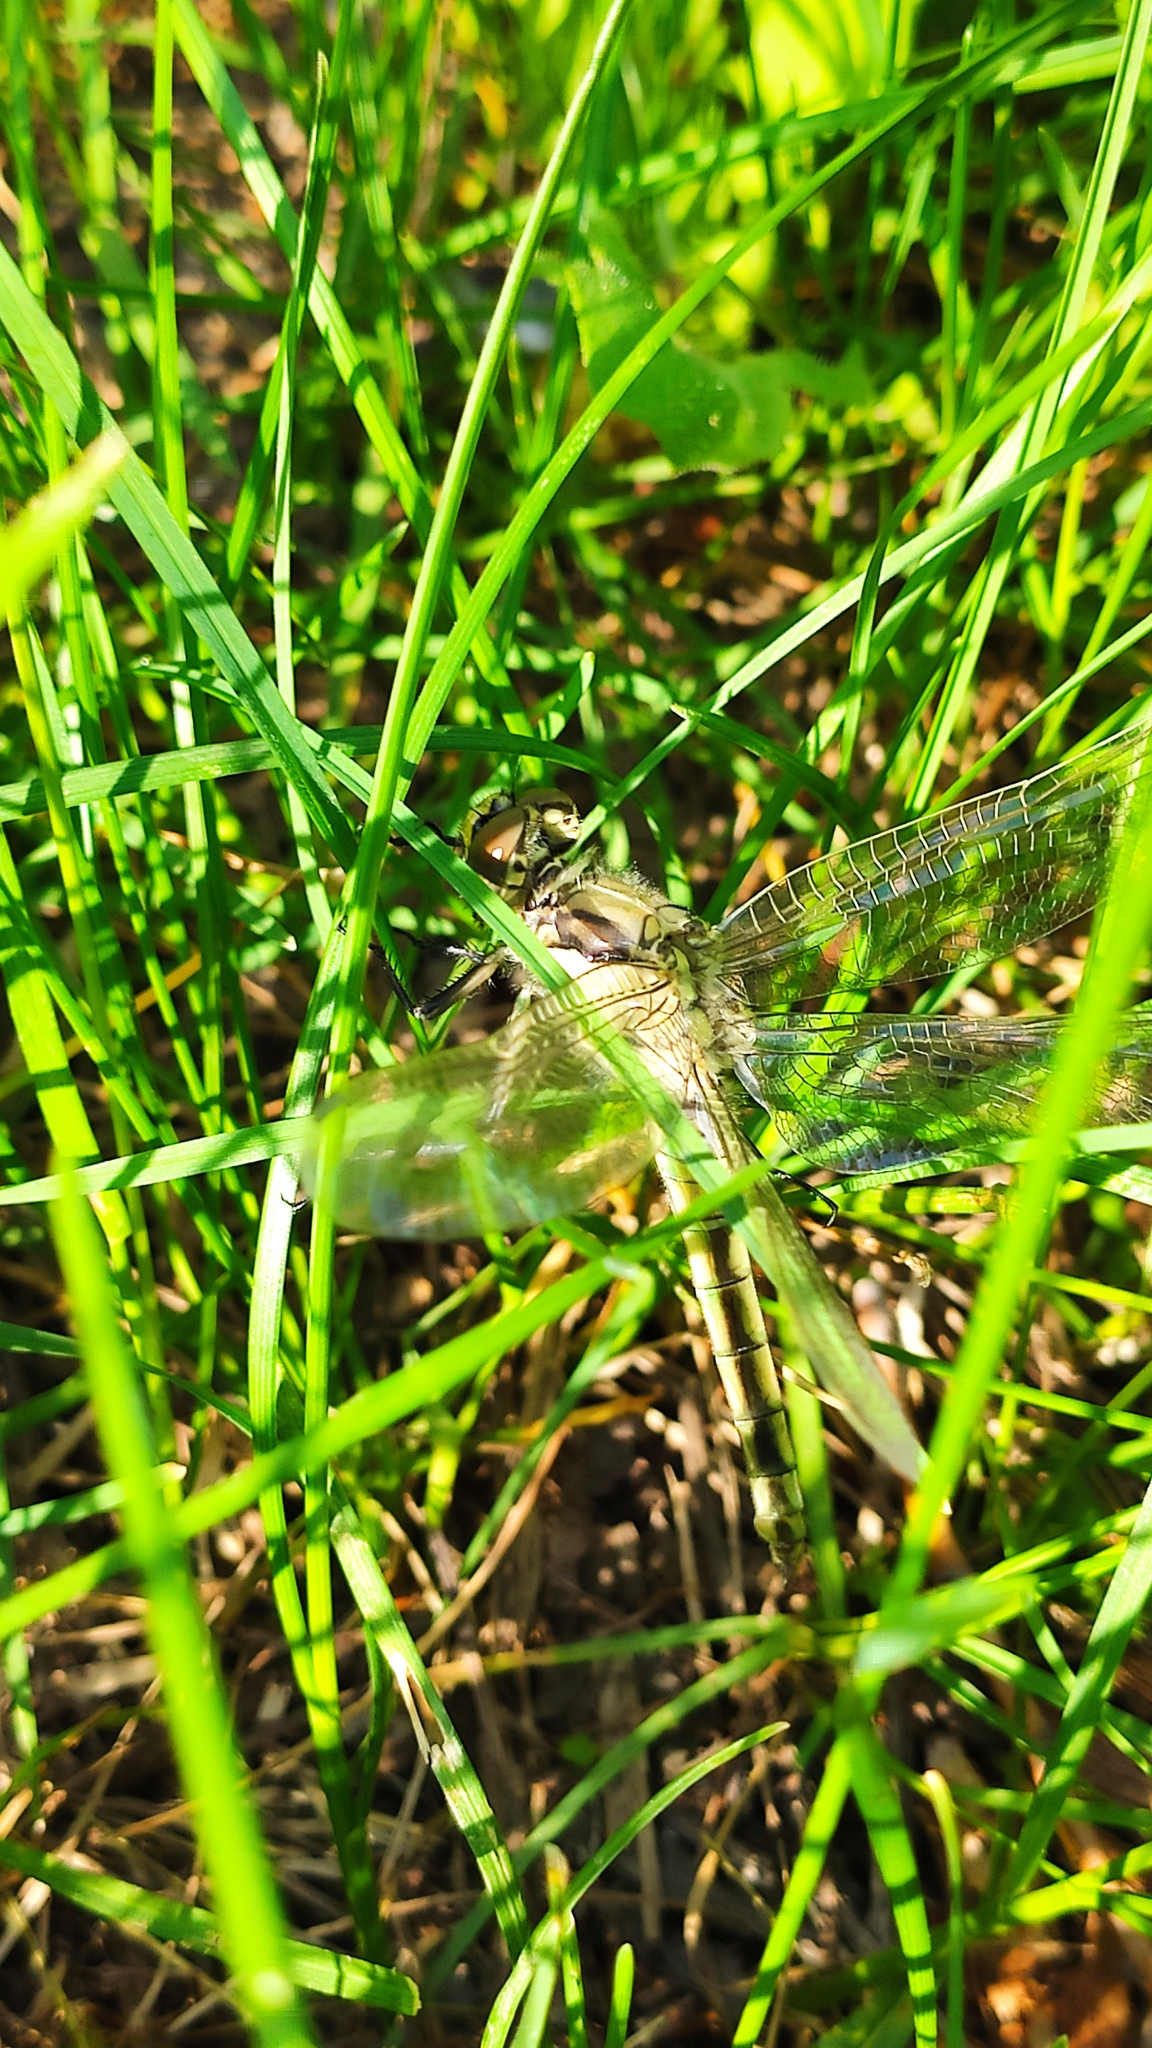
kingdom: Animalia
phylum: Arthropoda
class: Insecta
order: Odonata
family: Libellulidae
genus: Orthetrum
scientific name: Orthetrum albistylum
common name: White-tailed skimmer
